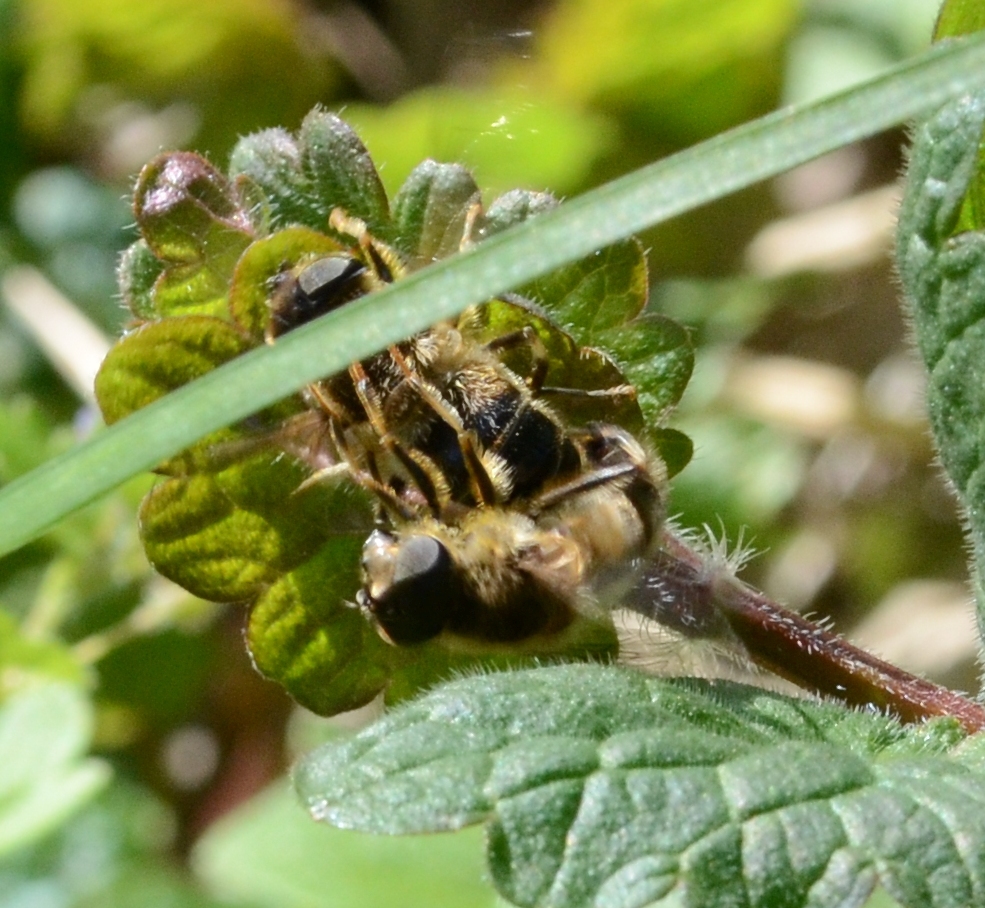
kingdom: Animalia
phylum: Arthropoda
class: Insecta
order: Diptera
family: Syrphidae
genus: Eristalis
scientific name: Eristalis pertinax
